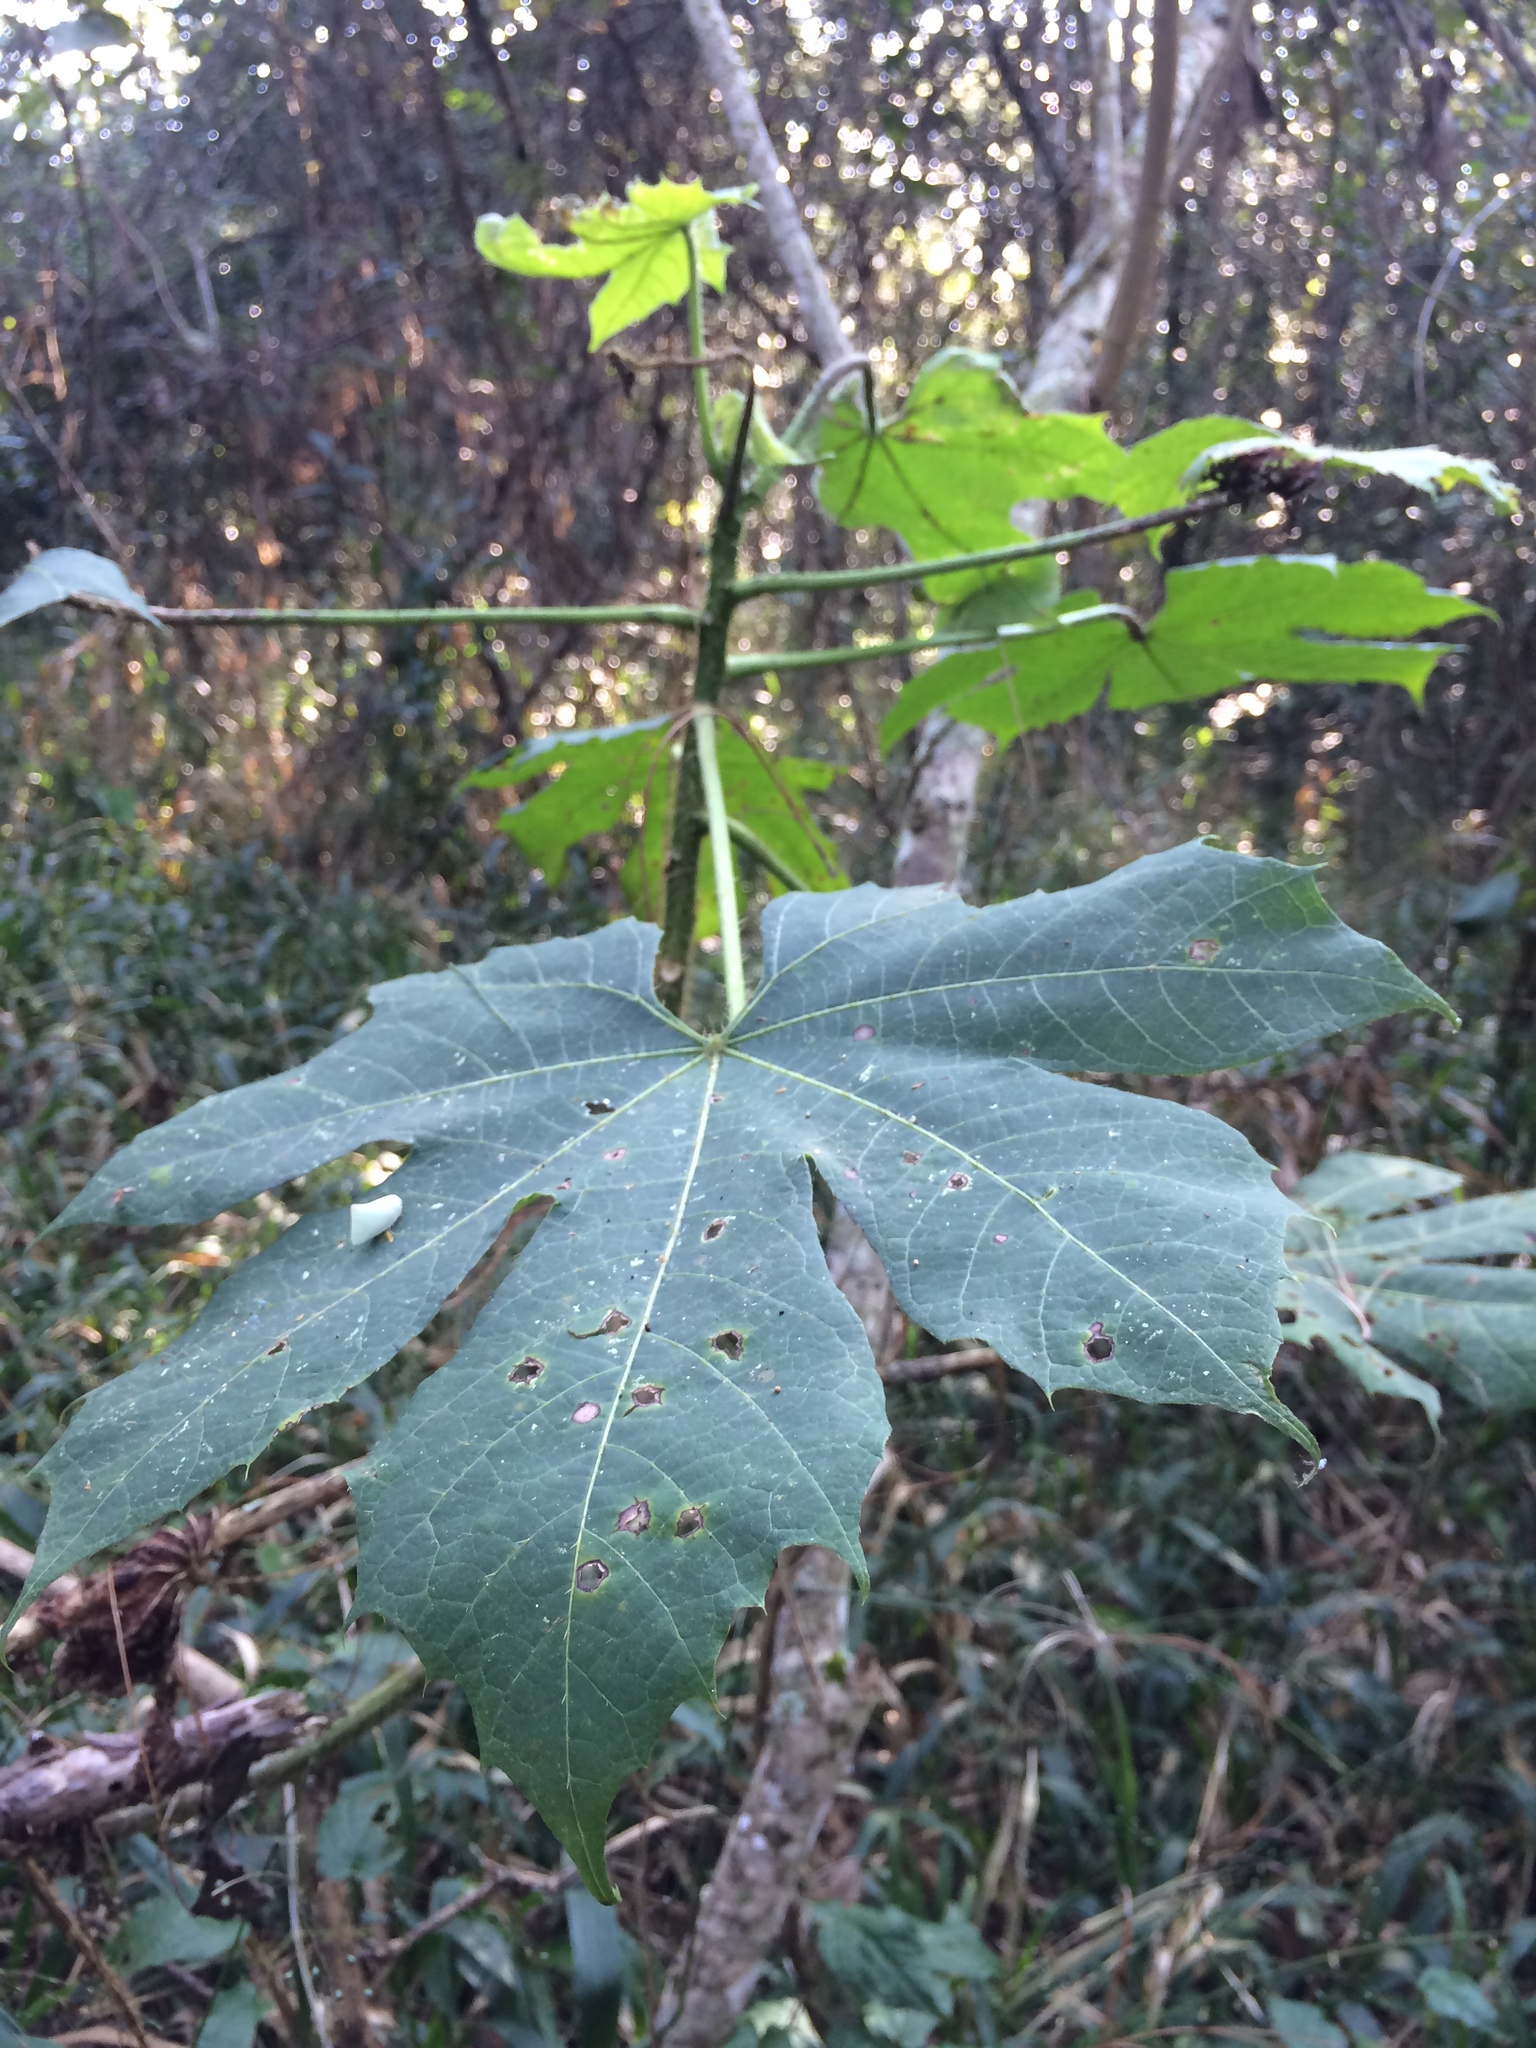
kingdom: Plantae
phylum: Tracheophyta
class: Magnoliopsida
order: Malpighiales
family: Euphorbiaceae
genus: Cnidoscolus
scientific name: Cnidoscolus multilobus
